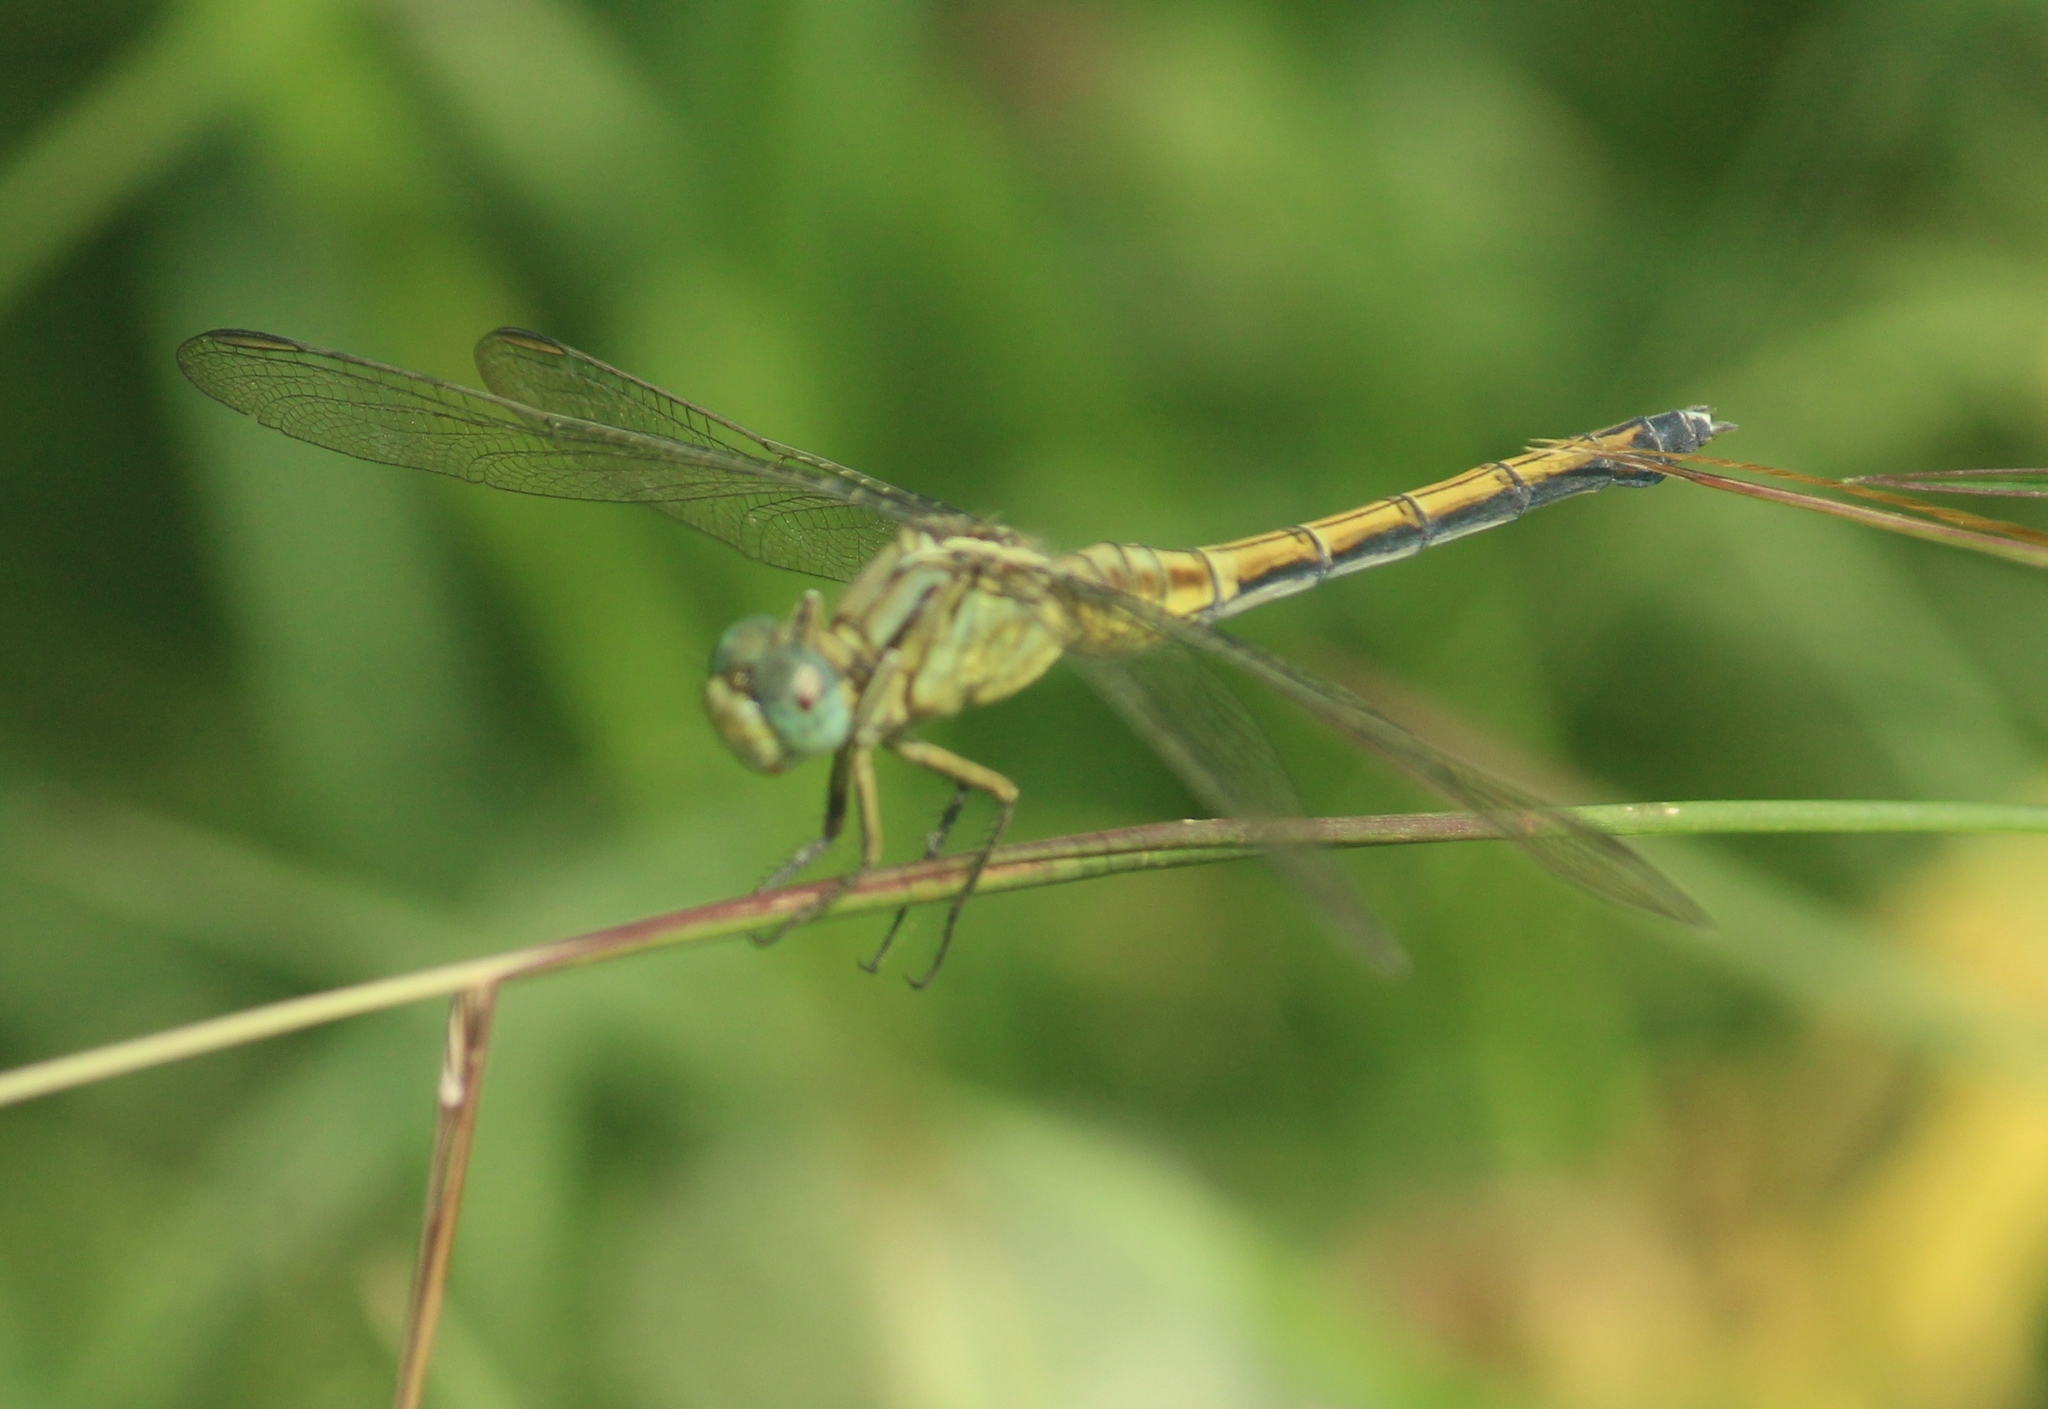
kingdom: Animalia
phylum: Arthropoda
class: Insecta
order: Odonata
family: Libellulidae
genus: Orthetrum
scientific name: Orthetrum luzonicum
